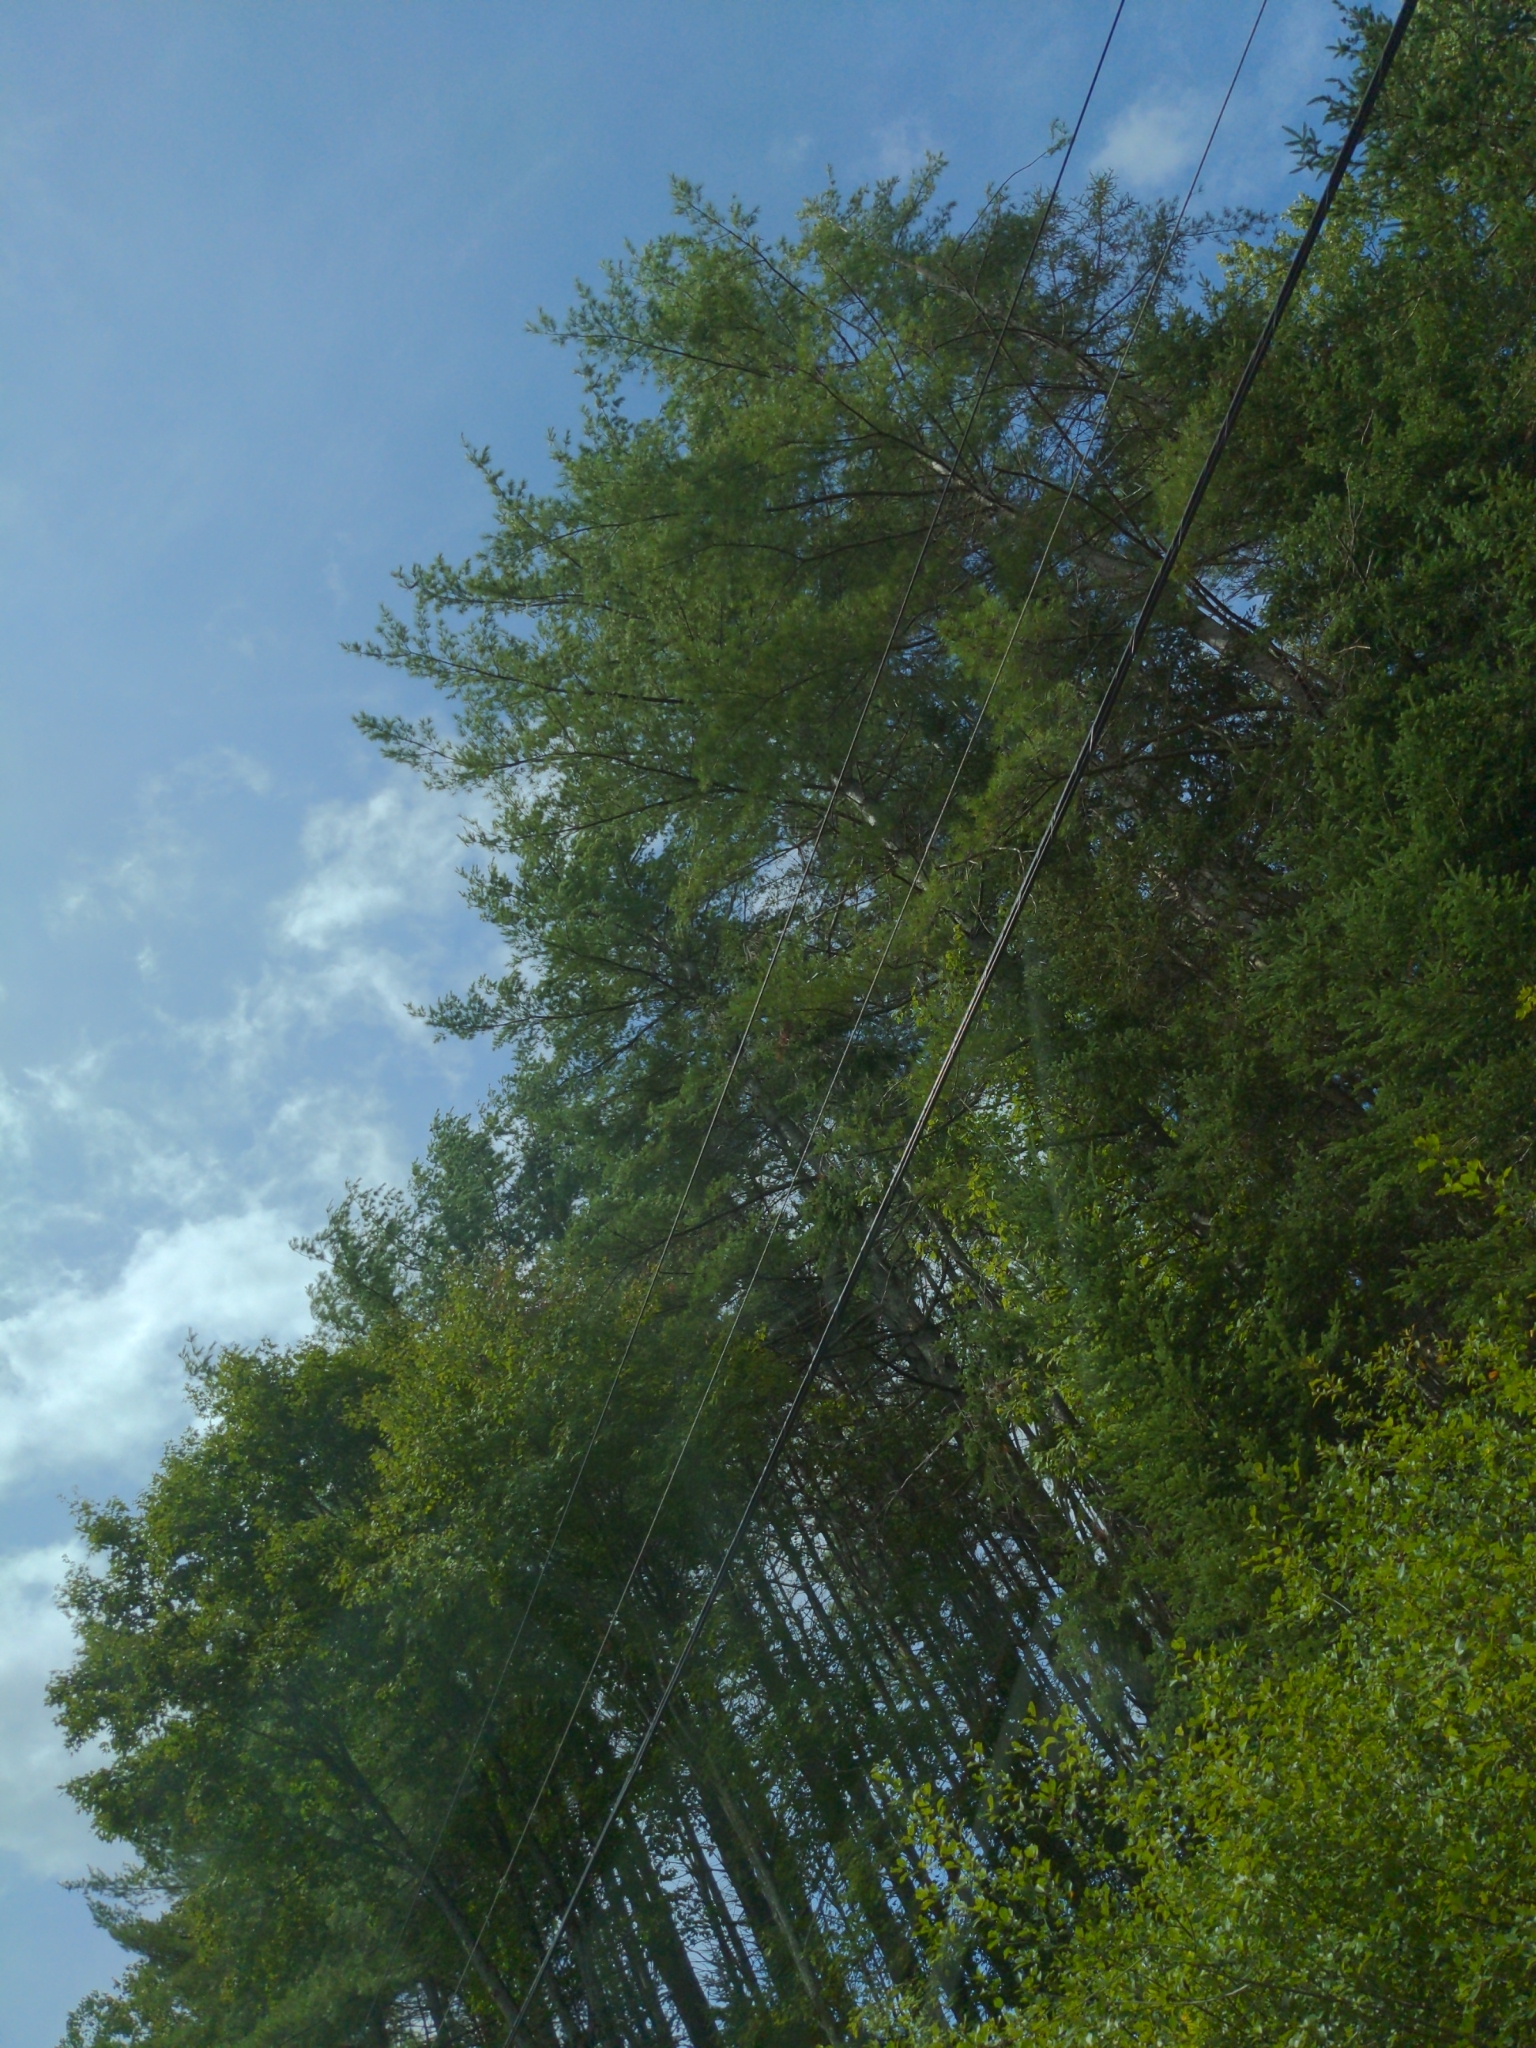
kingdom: Plantae
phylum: Tracheophyta
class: Pinopsida
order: Pinales
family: Pinaceae
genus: Pinus
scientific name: Pinus strobus
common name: Weymouth pine
